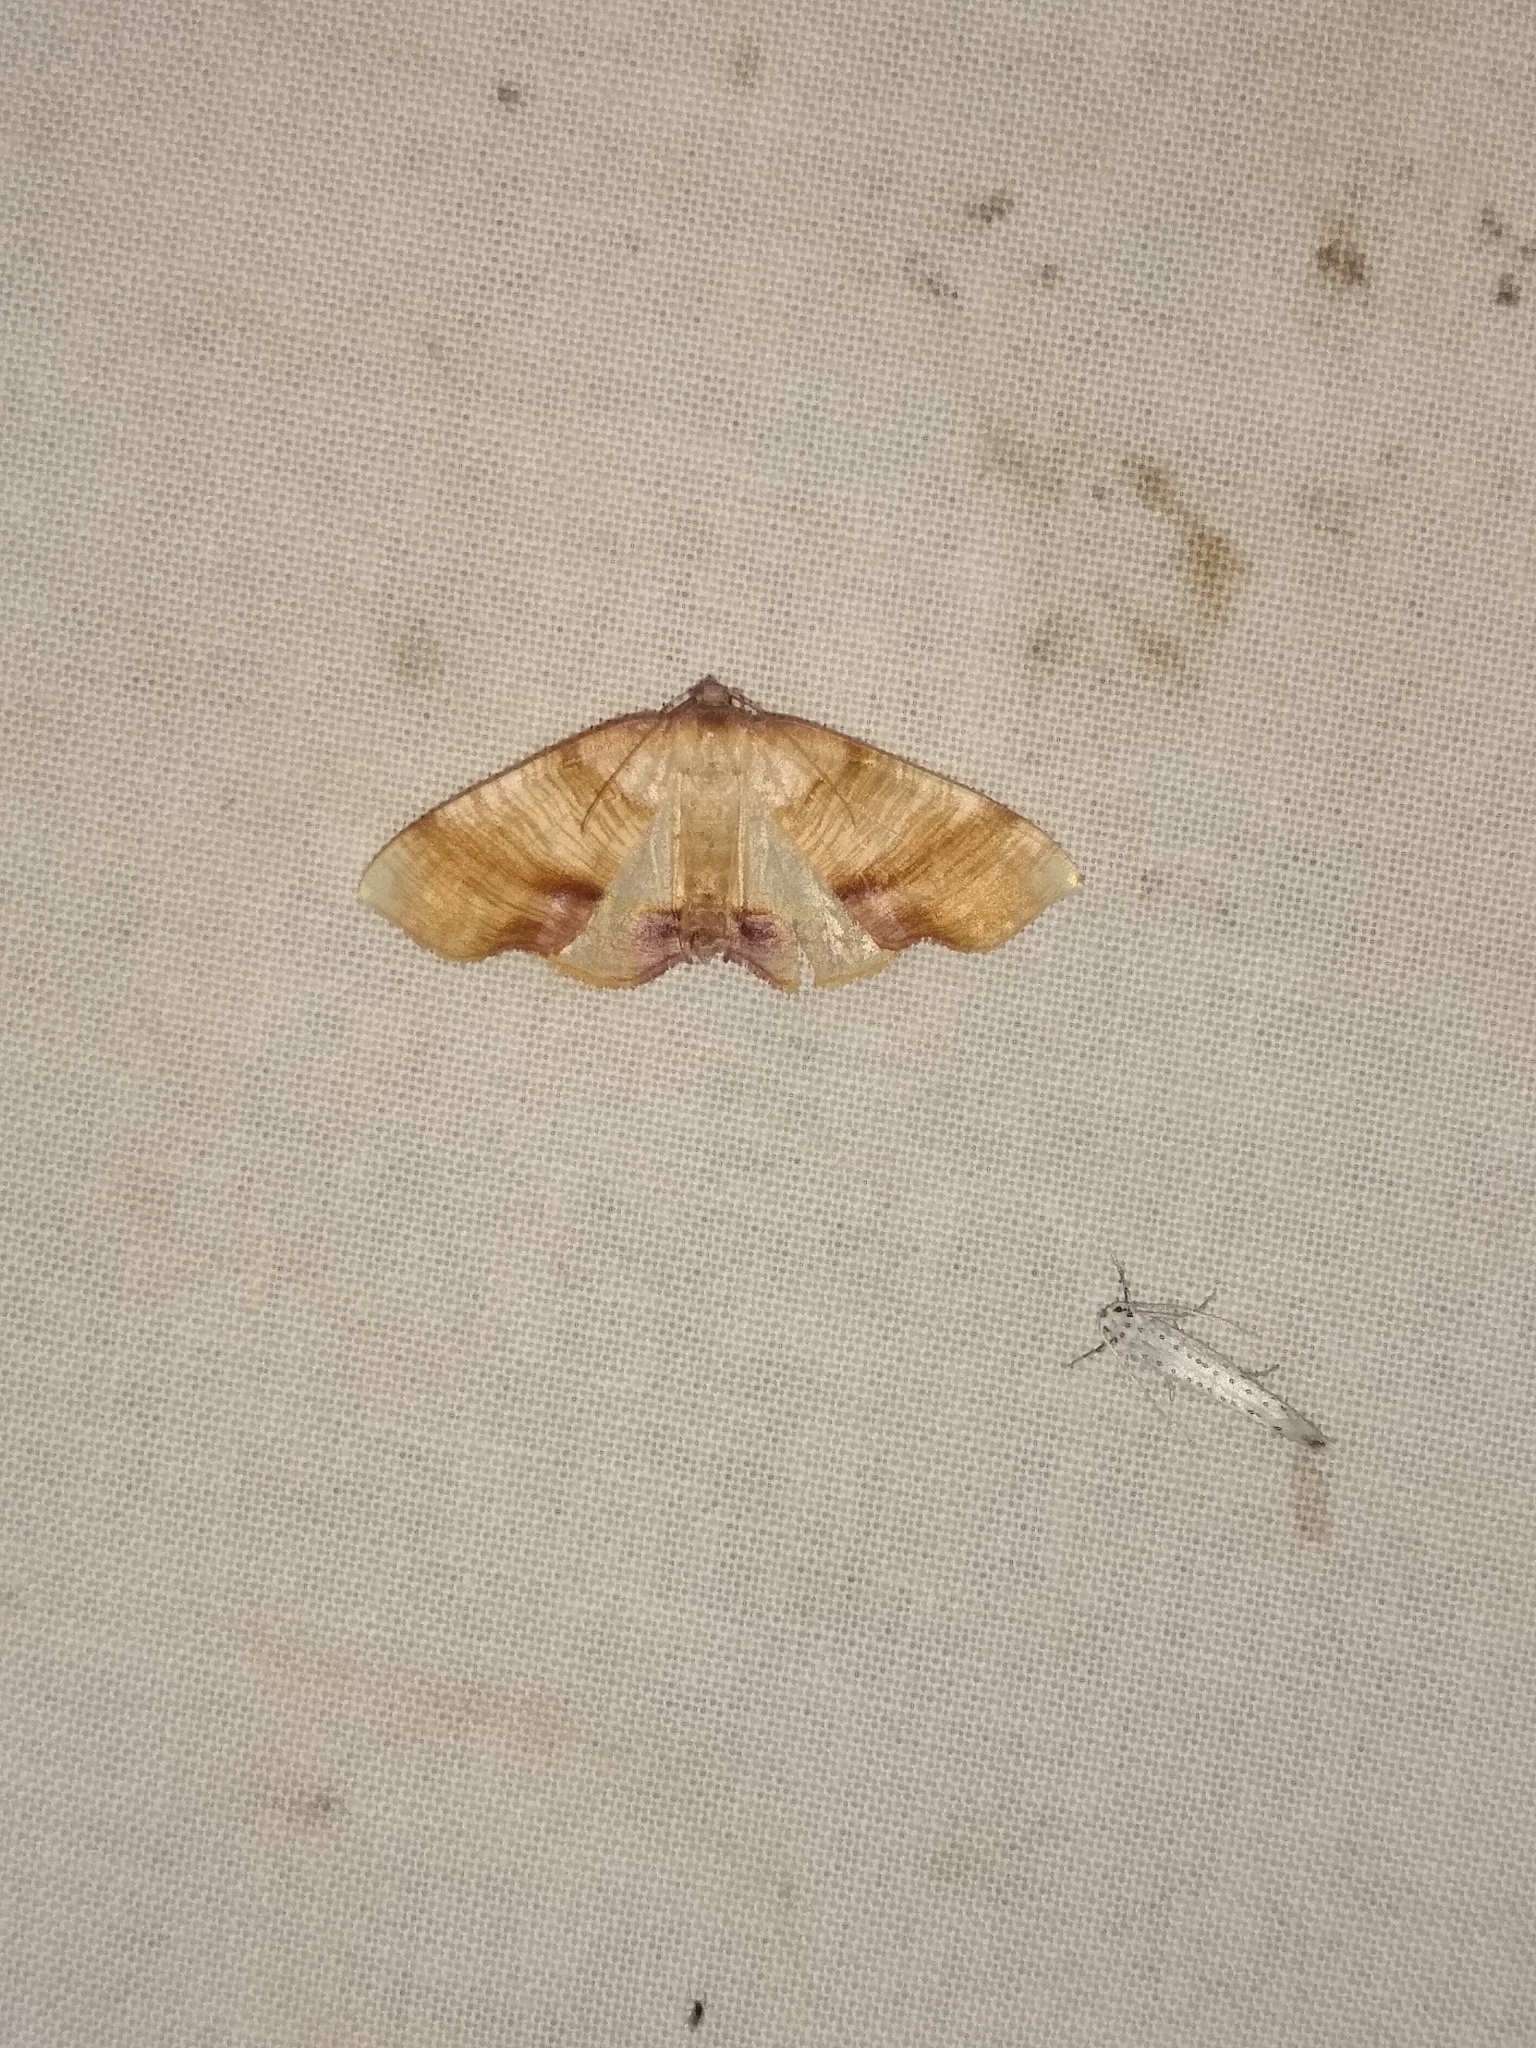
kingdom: Animalia
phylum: Arthropoda
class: Insecta
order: Lepidoptera
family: Geometridae
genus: Plagodis
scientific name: Plagodis dolabraria
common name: Scorched wing
